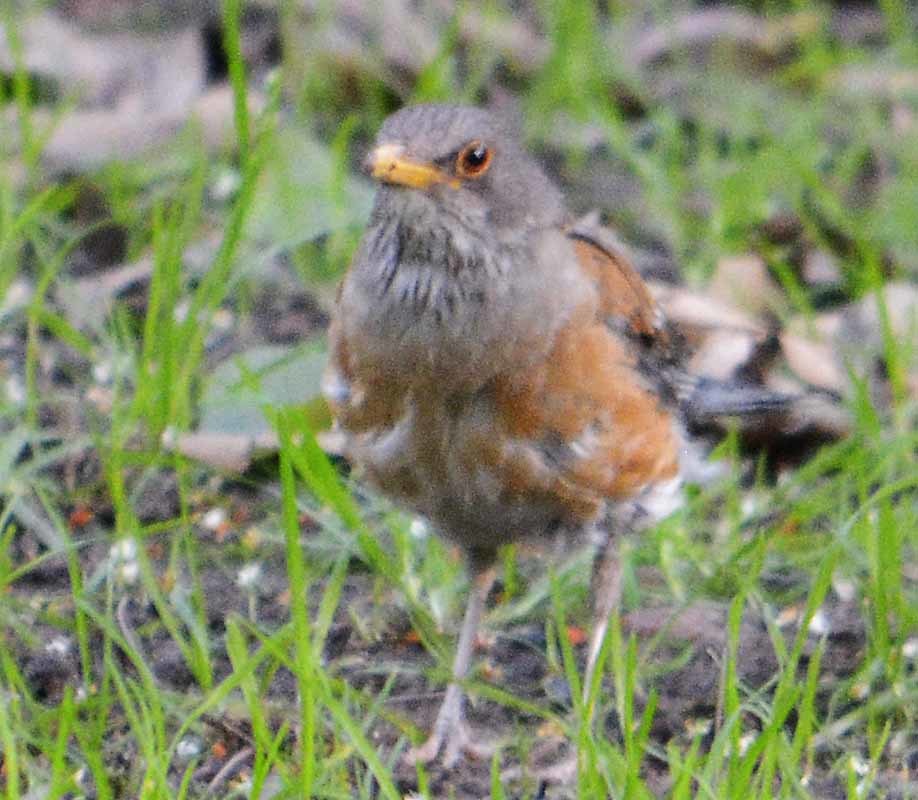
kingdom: Animalia
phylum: Chordata
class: Aves
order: Passeriformes
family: Turdidae
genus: Turdus
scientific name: Turdus rufopalliatus
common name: Rufous-backed robin
